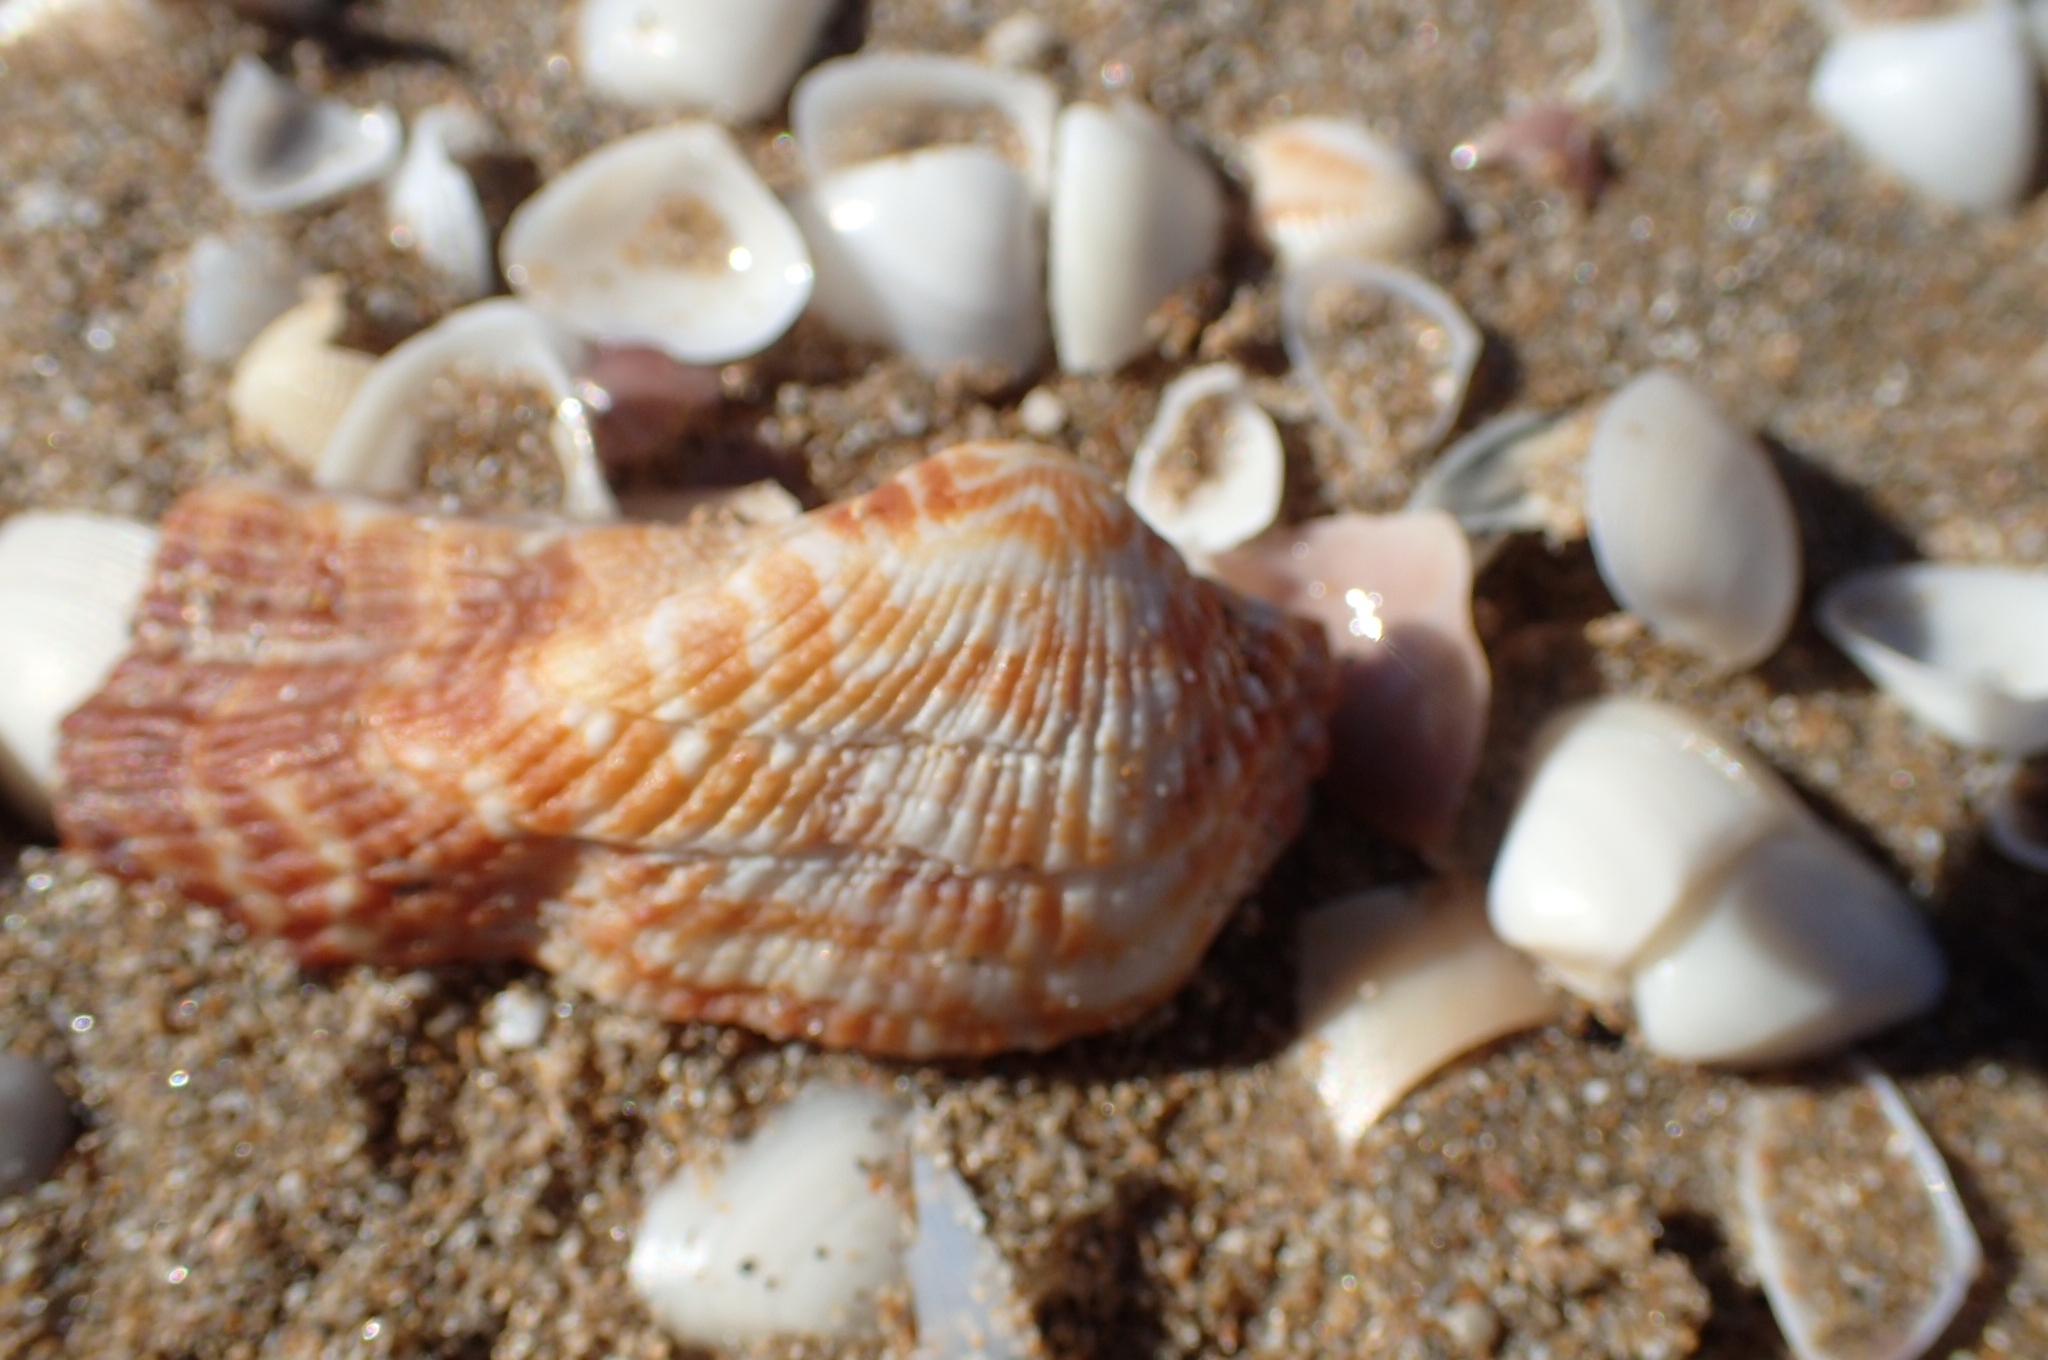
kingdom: Animalia
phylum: Mollusca
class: Bivalvia
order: Arcida
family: Arcidae
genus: Arca
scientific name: Arca noae
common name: Noah's arch
